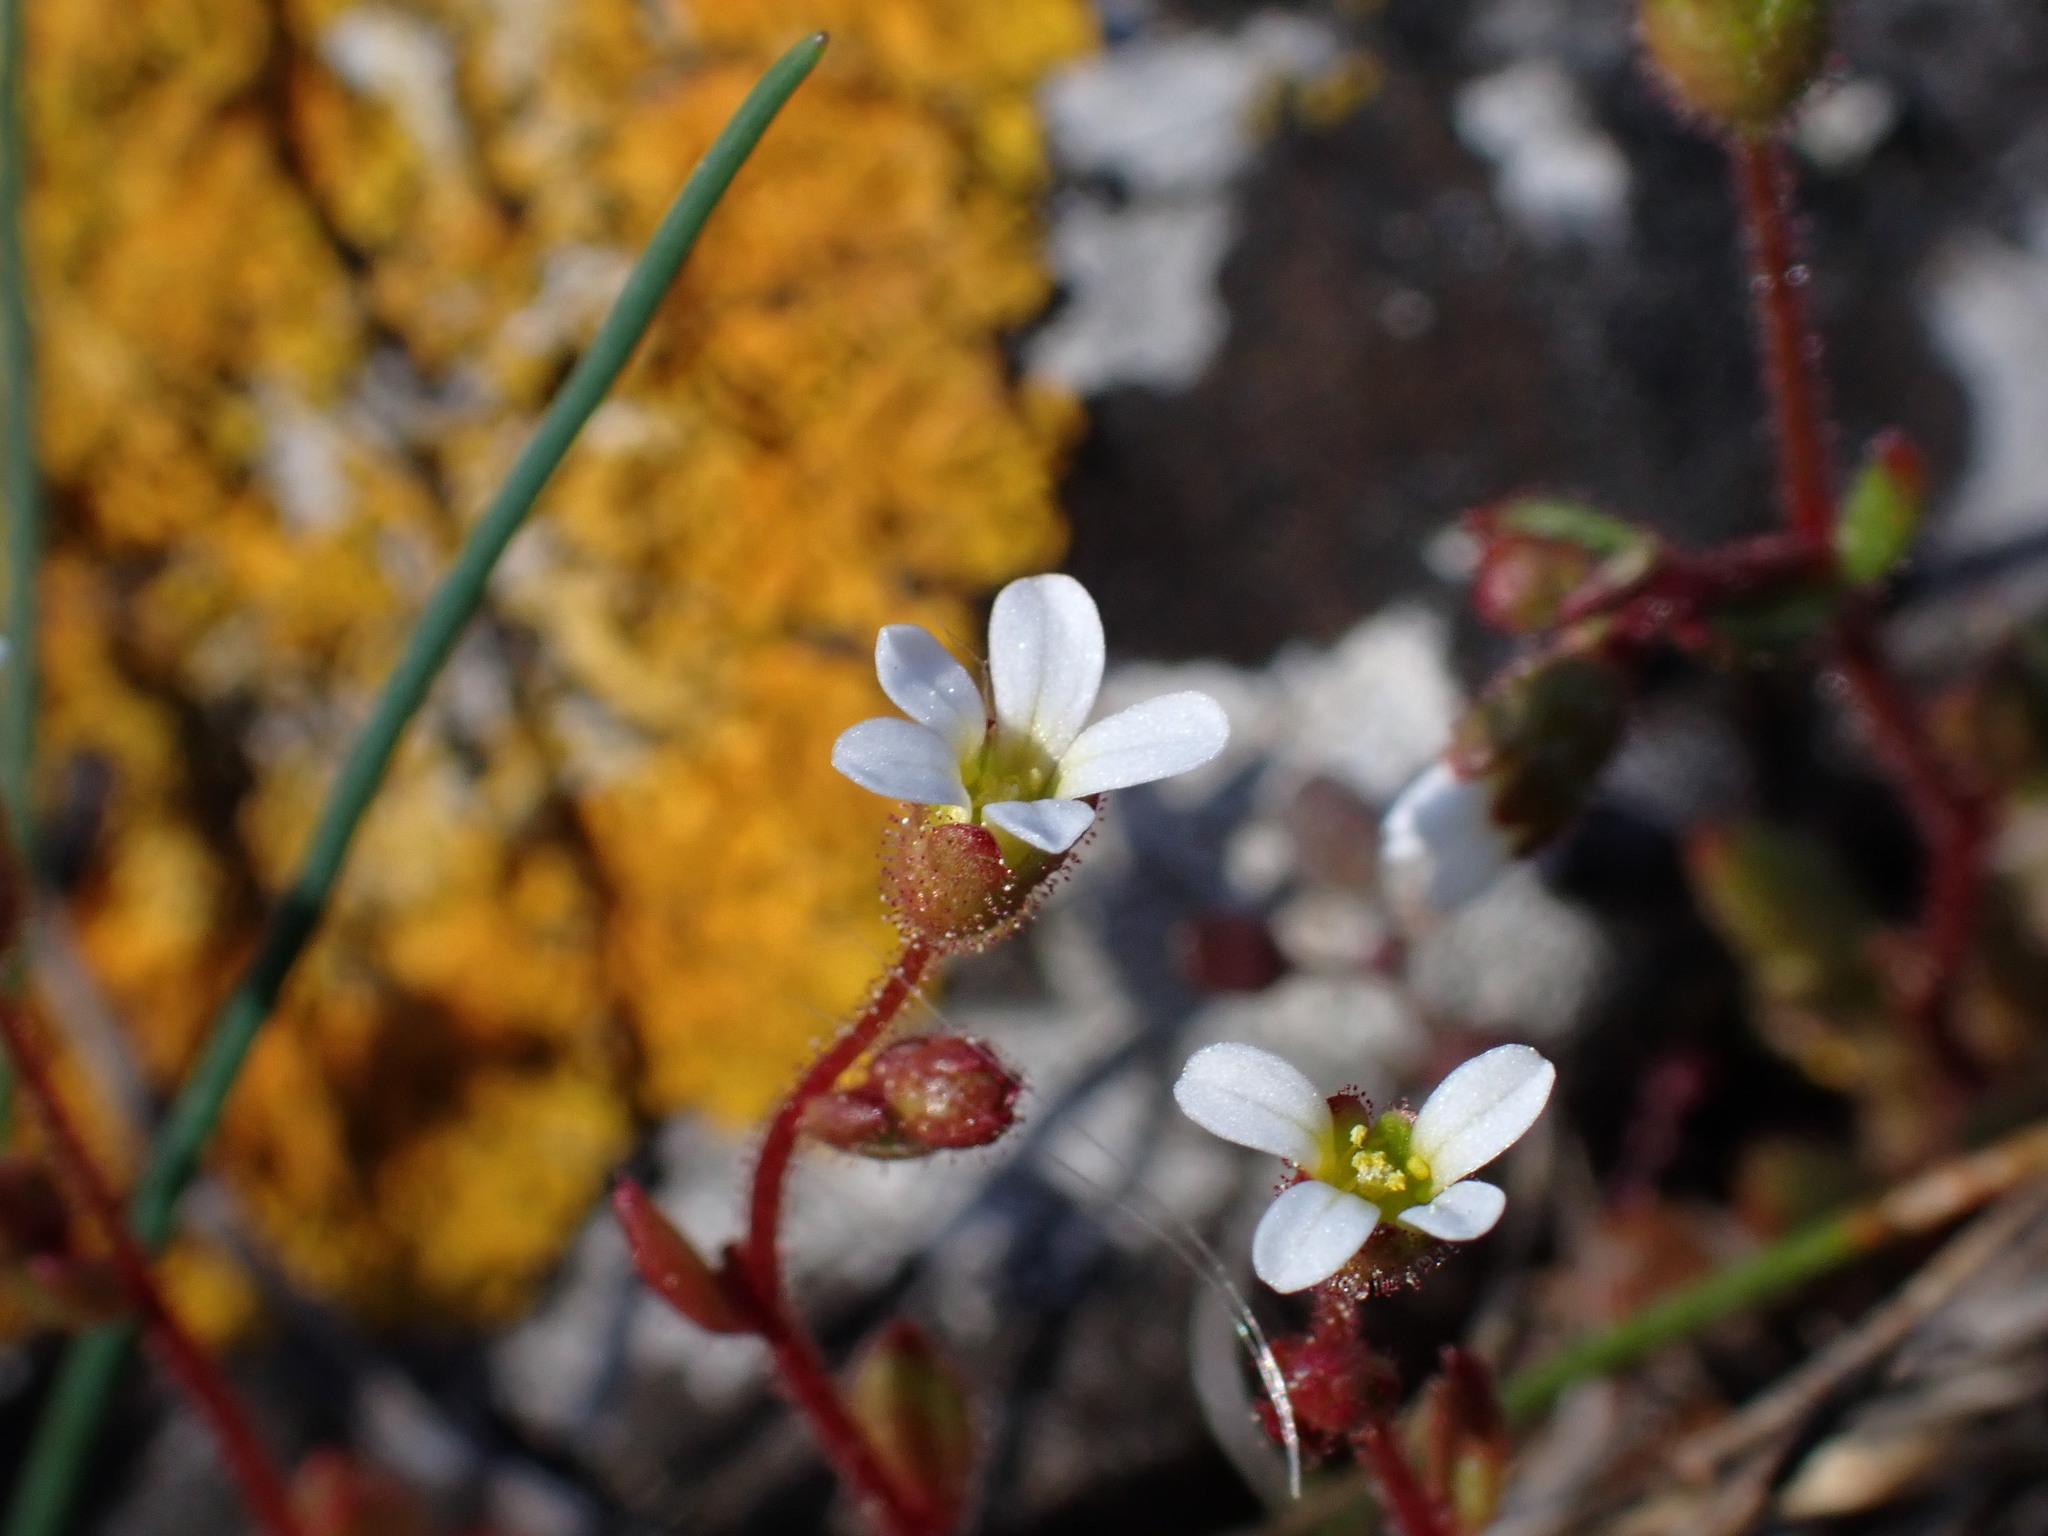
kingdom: Plantae
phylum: Tracheophyta
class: Magnoliopsida
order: Saxifragales
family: Saxifragaceae
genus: Saxifraga
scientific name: Saxifraga tridactylites
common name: Rue-leaved saxifrage
